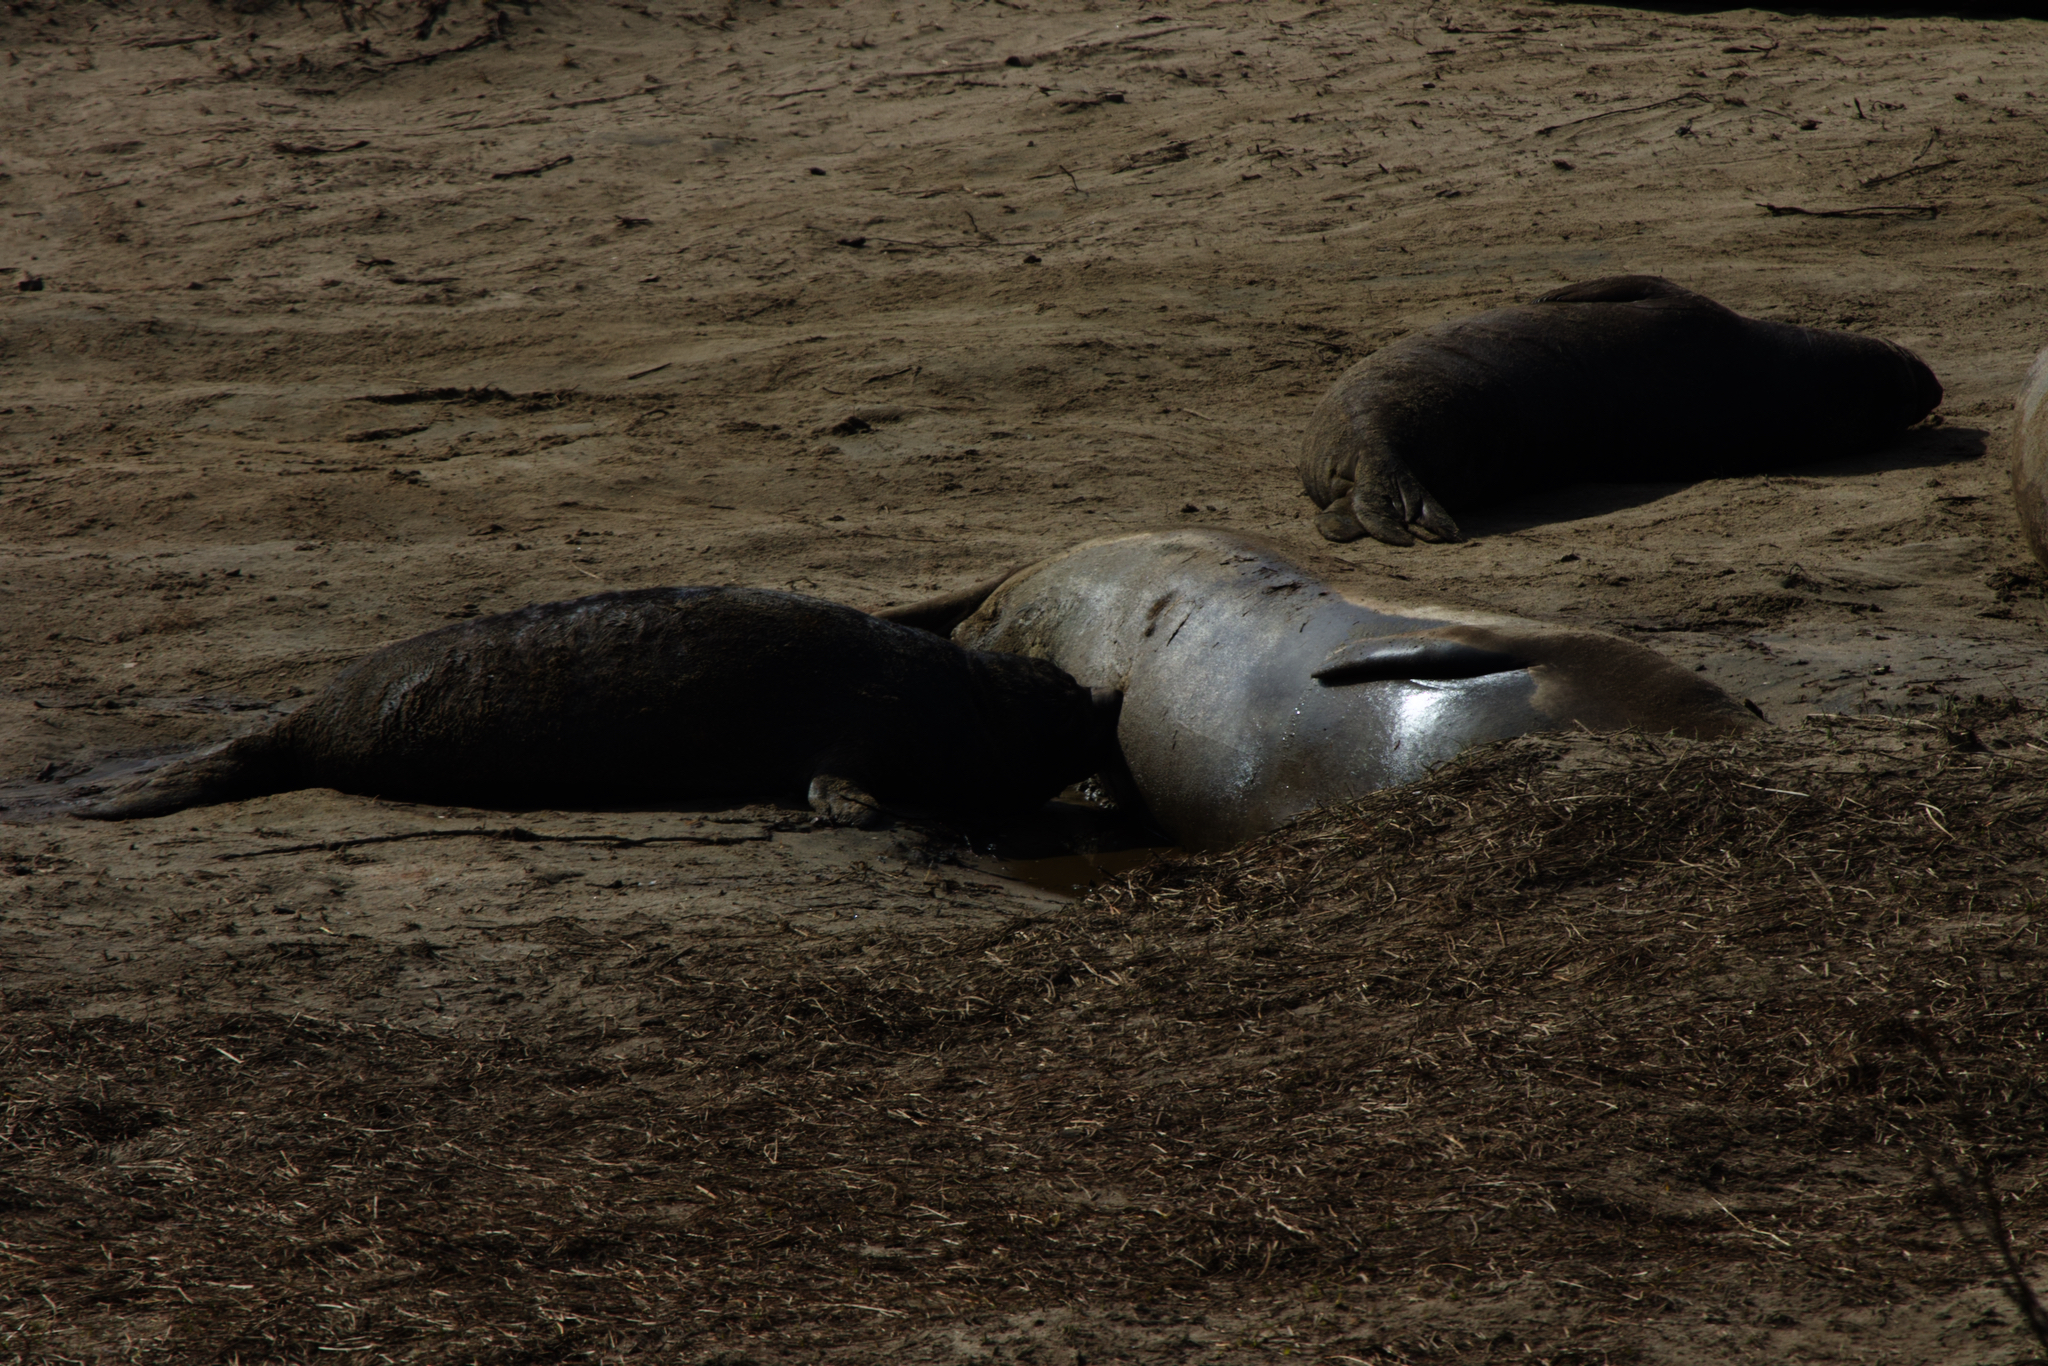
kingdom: Animalia
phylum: Chordata
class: Mammalia
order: Carnivora
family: Phocidae
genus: Mirounga
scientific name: Mirounga angustirostris
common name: Northern elephant seal
